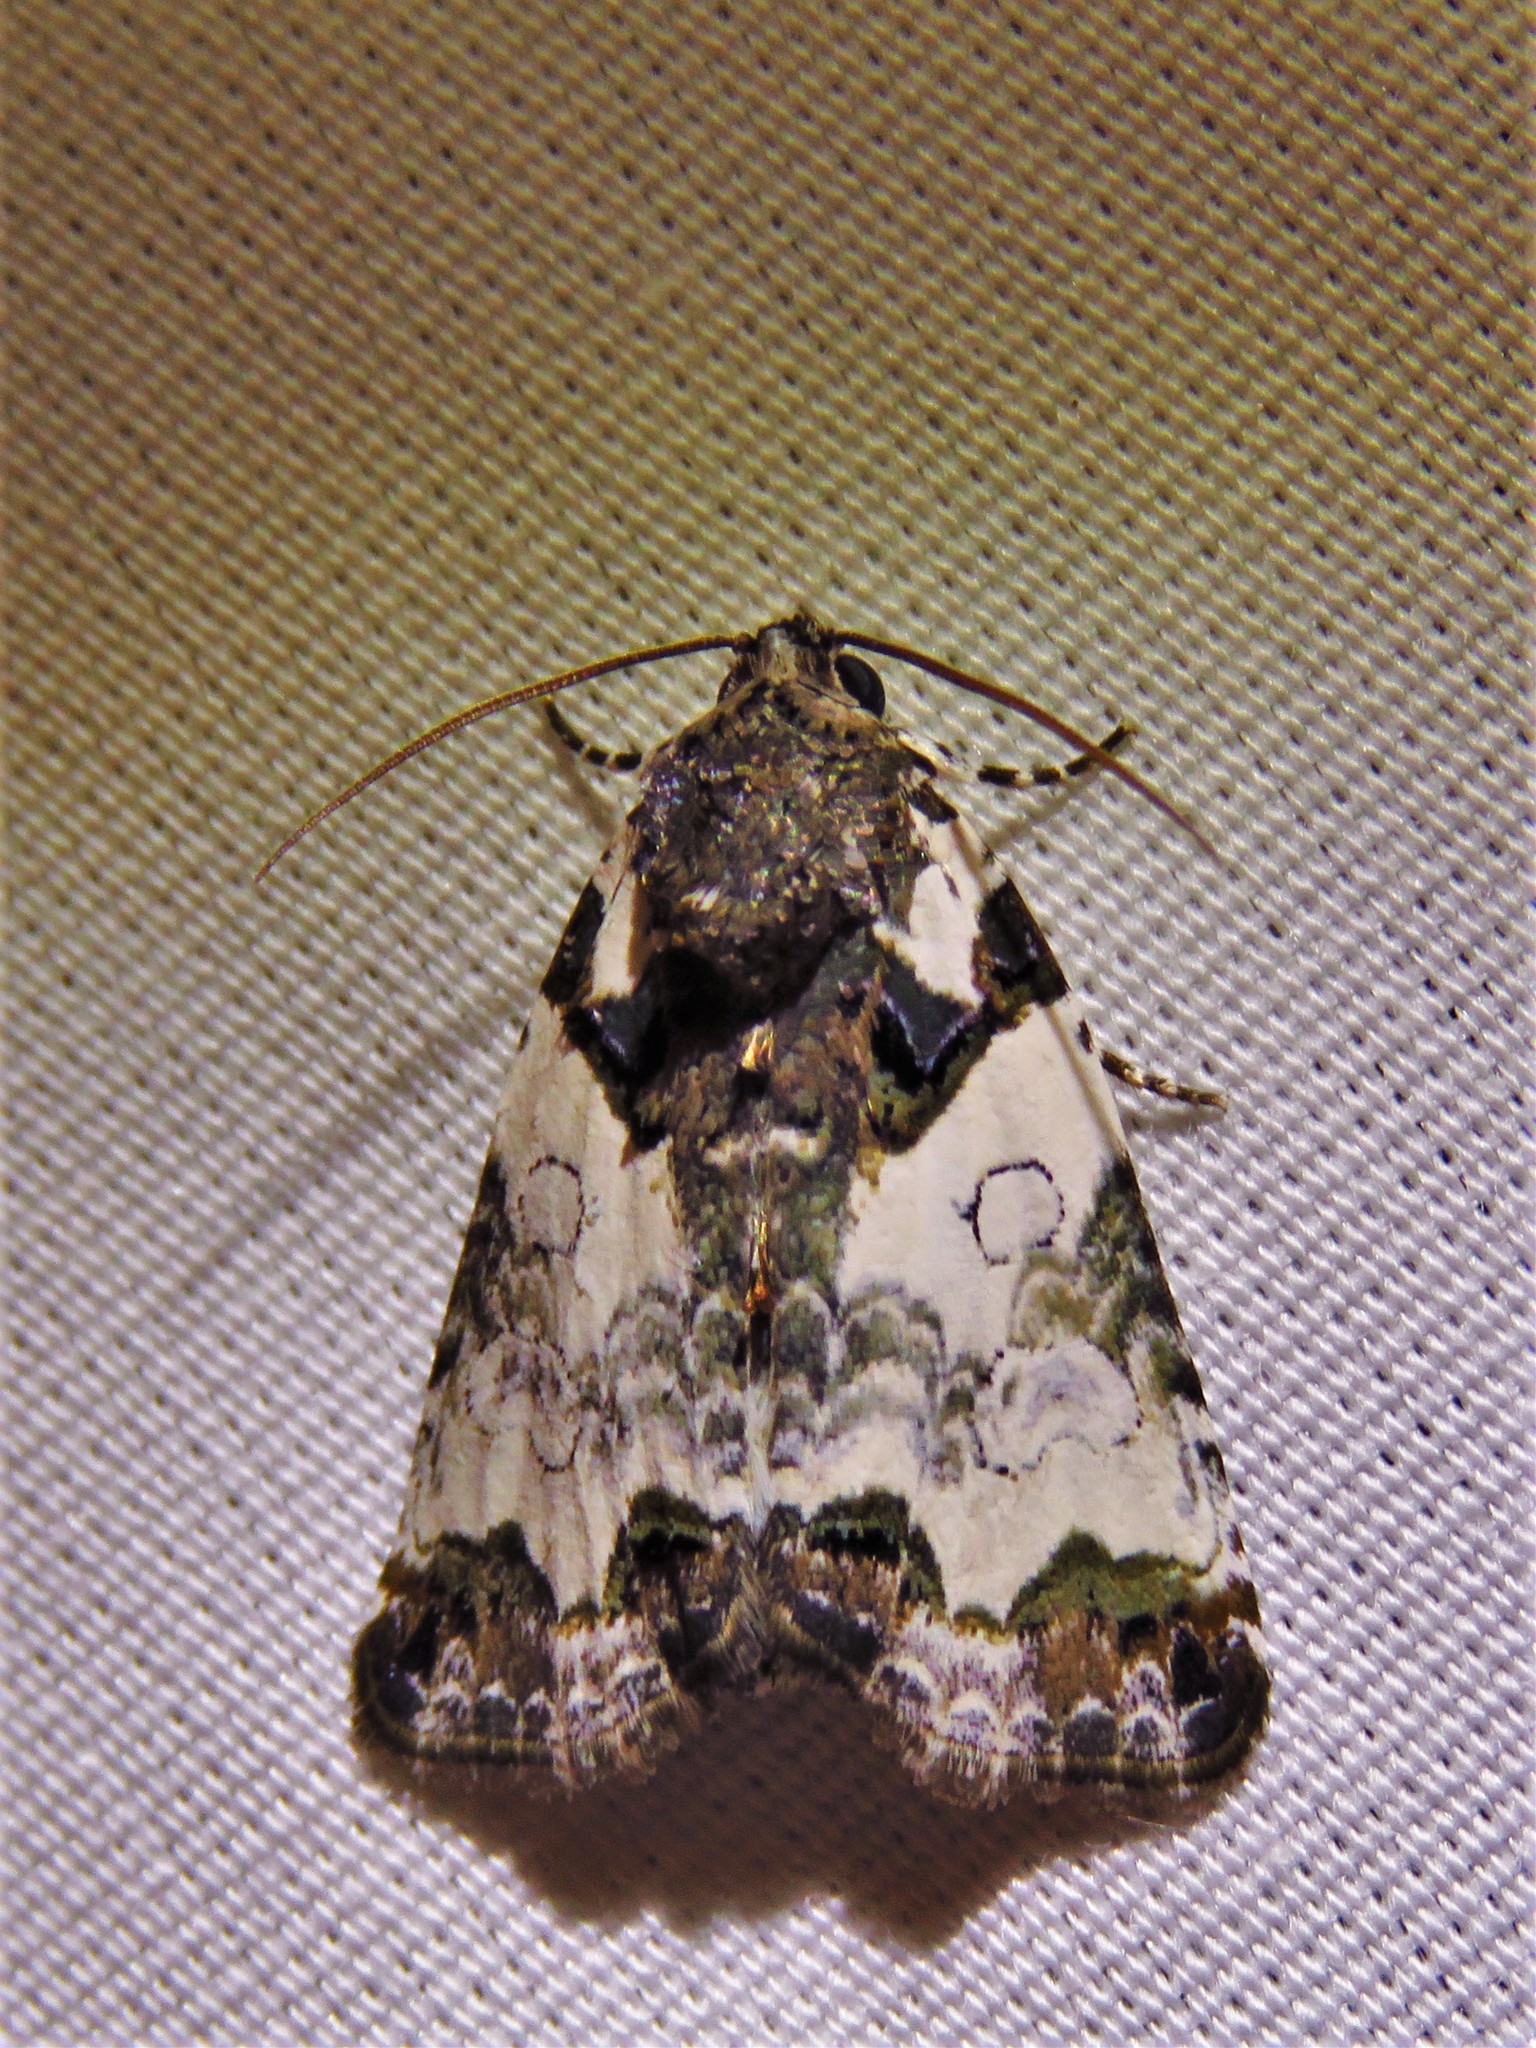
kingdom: Animalia
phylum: Arthropoda
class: Insecta
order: Lepidoptera
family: Noctuidae
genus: Cerma
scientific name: Cerma cerintha
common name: Tufted bird-dropping moth
